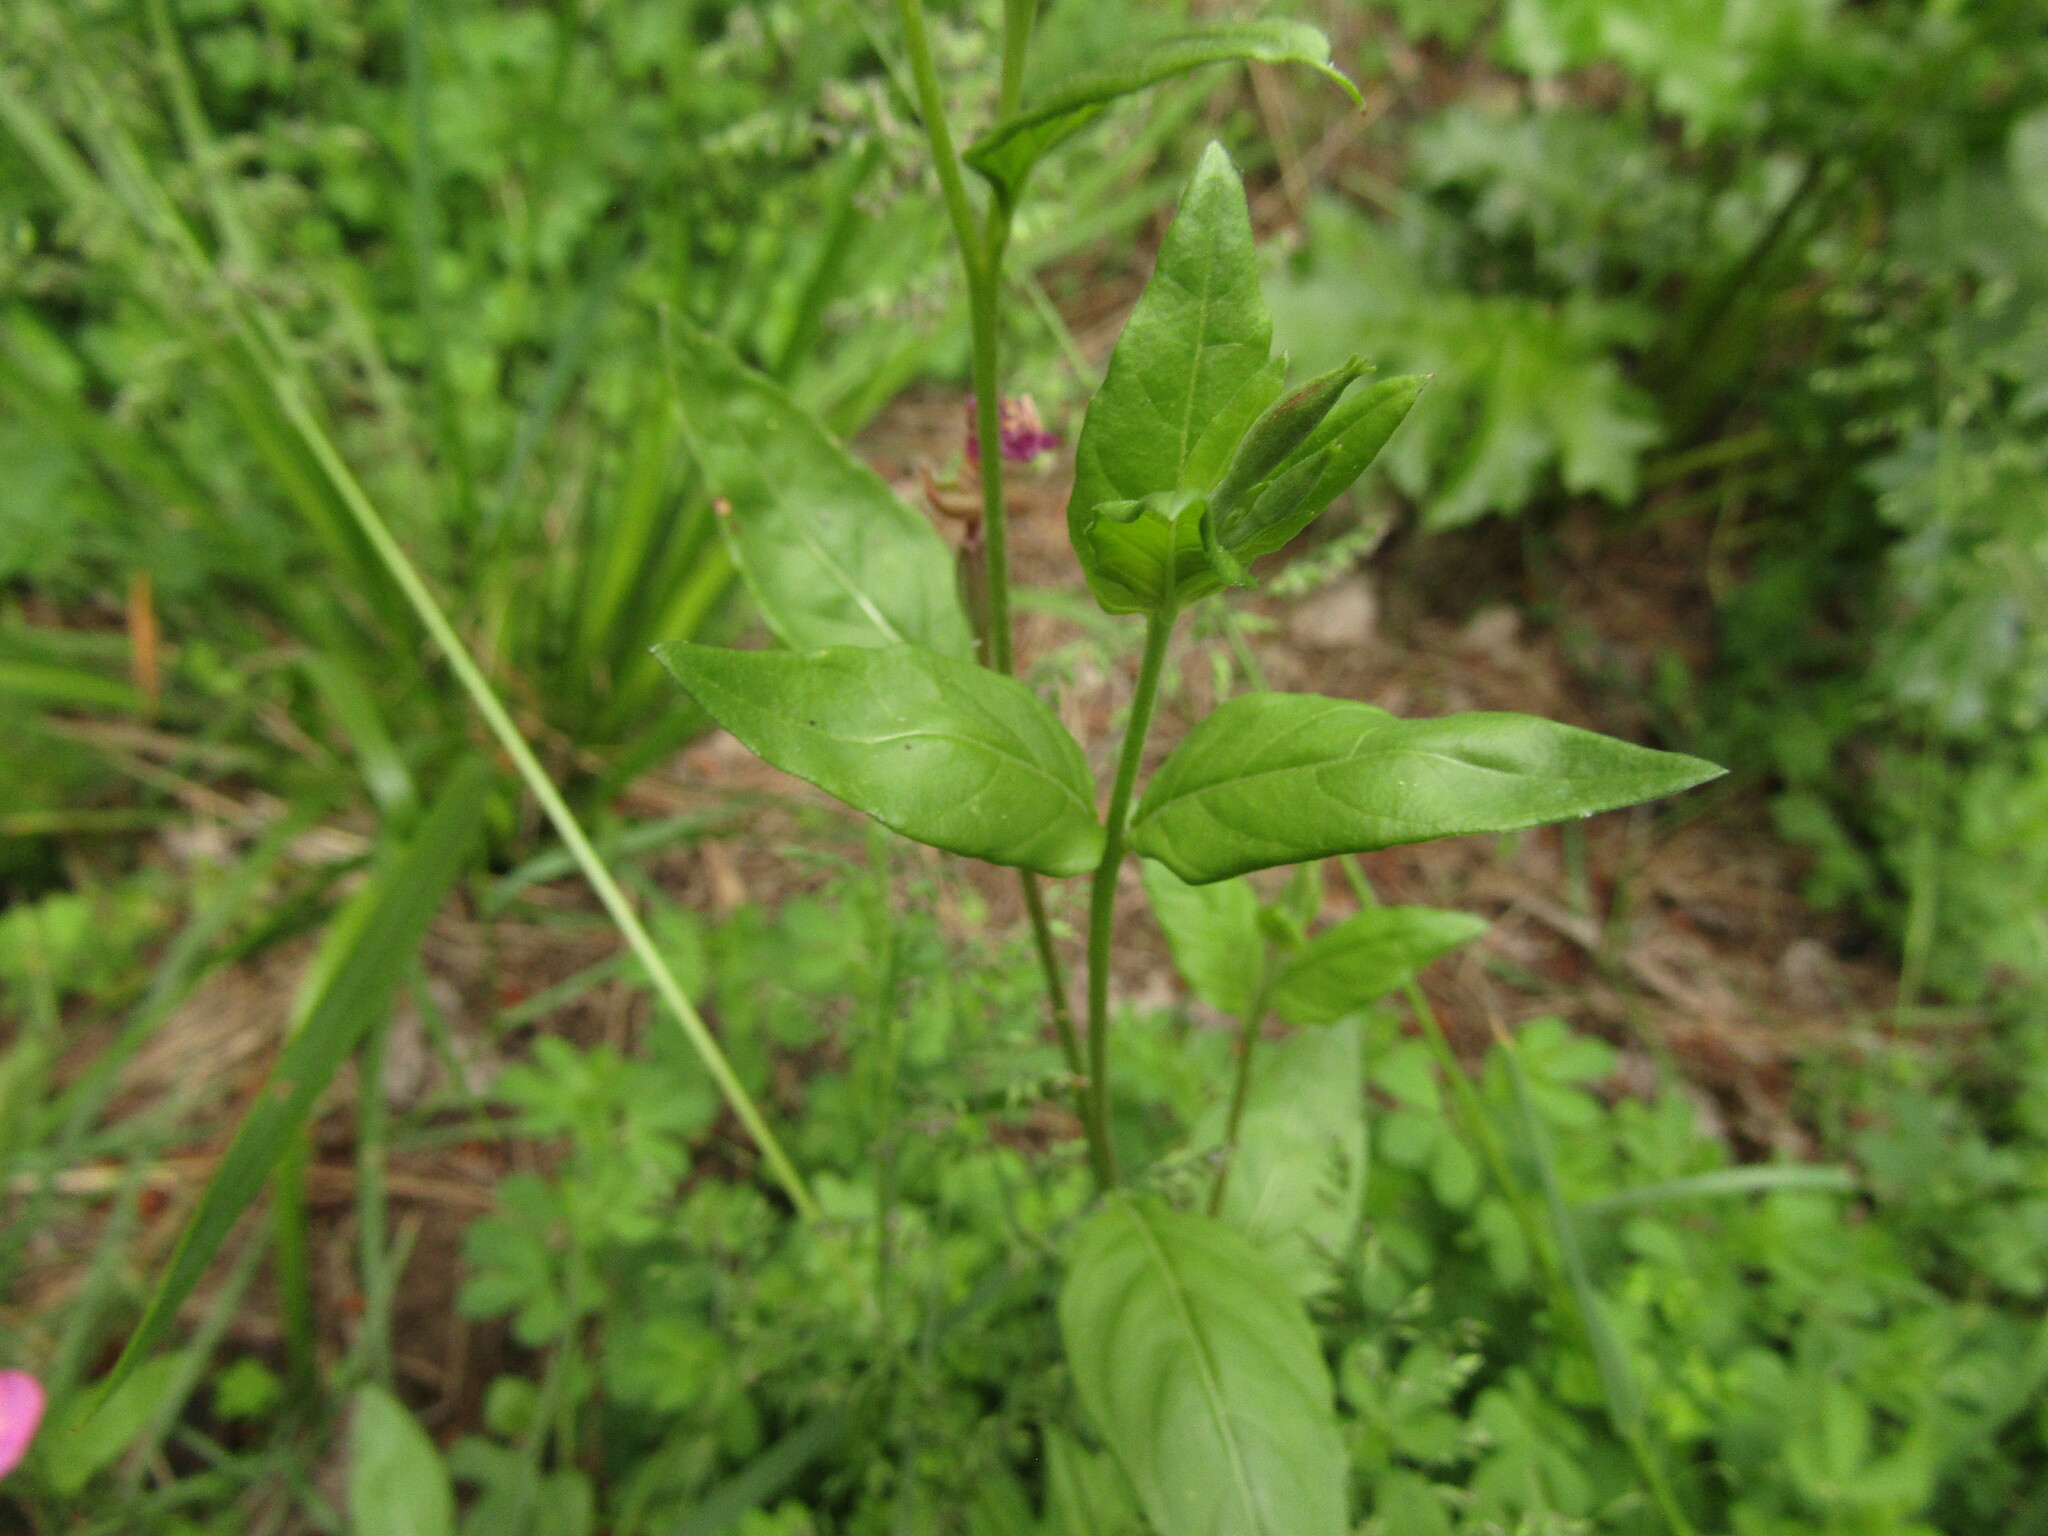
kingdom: Plantae
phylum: Tracheophyta
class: Magnoliopsida
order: Myrtales
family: Onagraceae
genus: Oenothera
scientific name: Oenothera rosea
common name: Rosy evening-primrose
